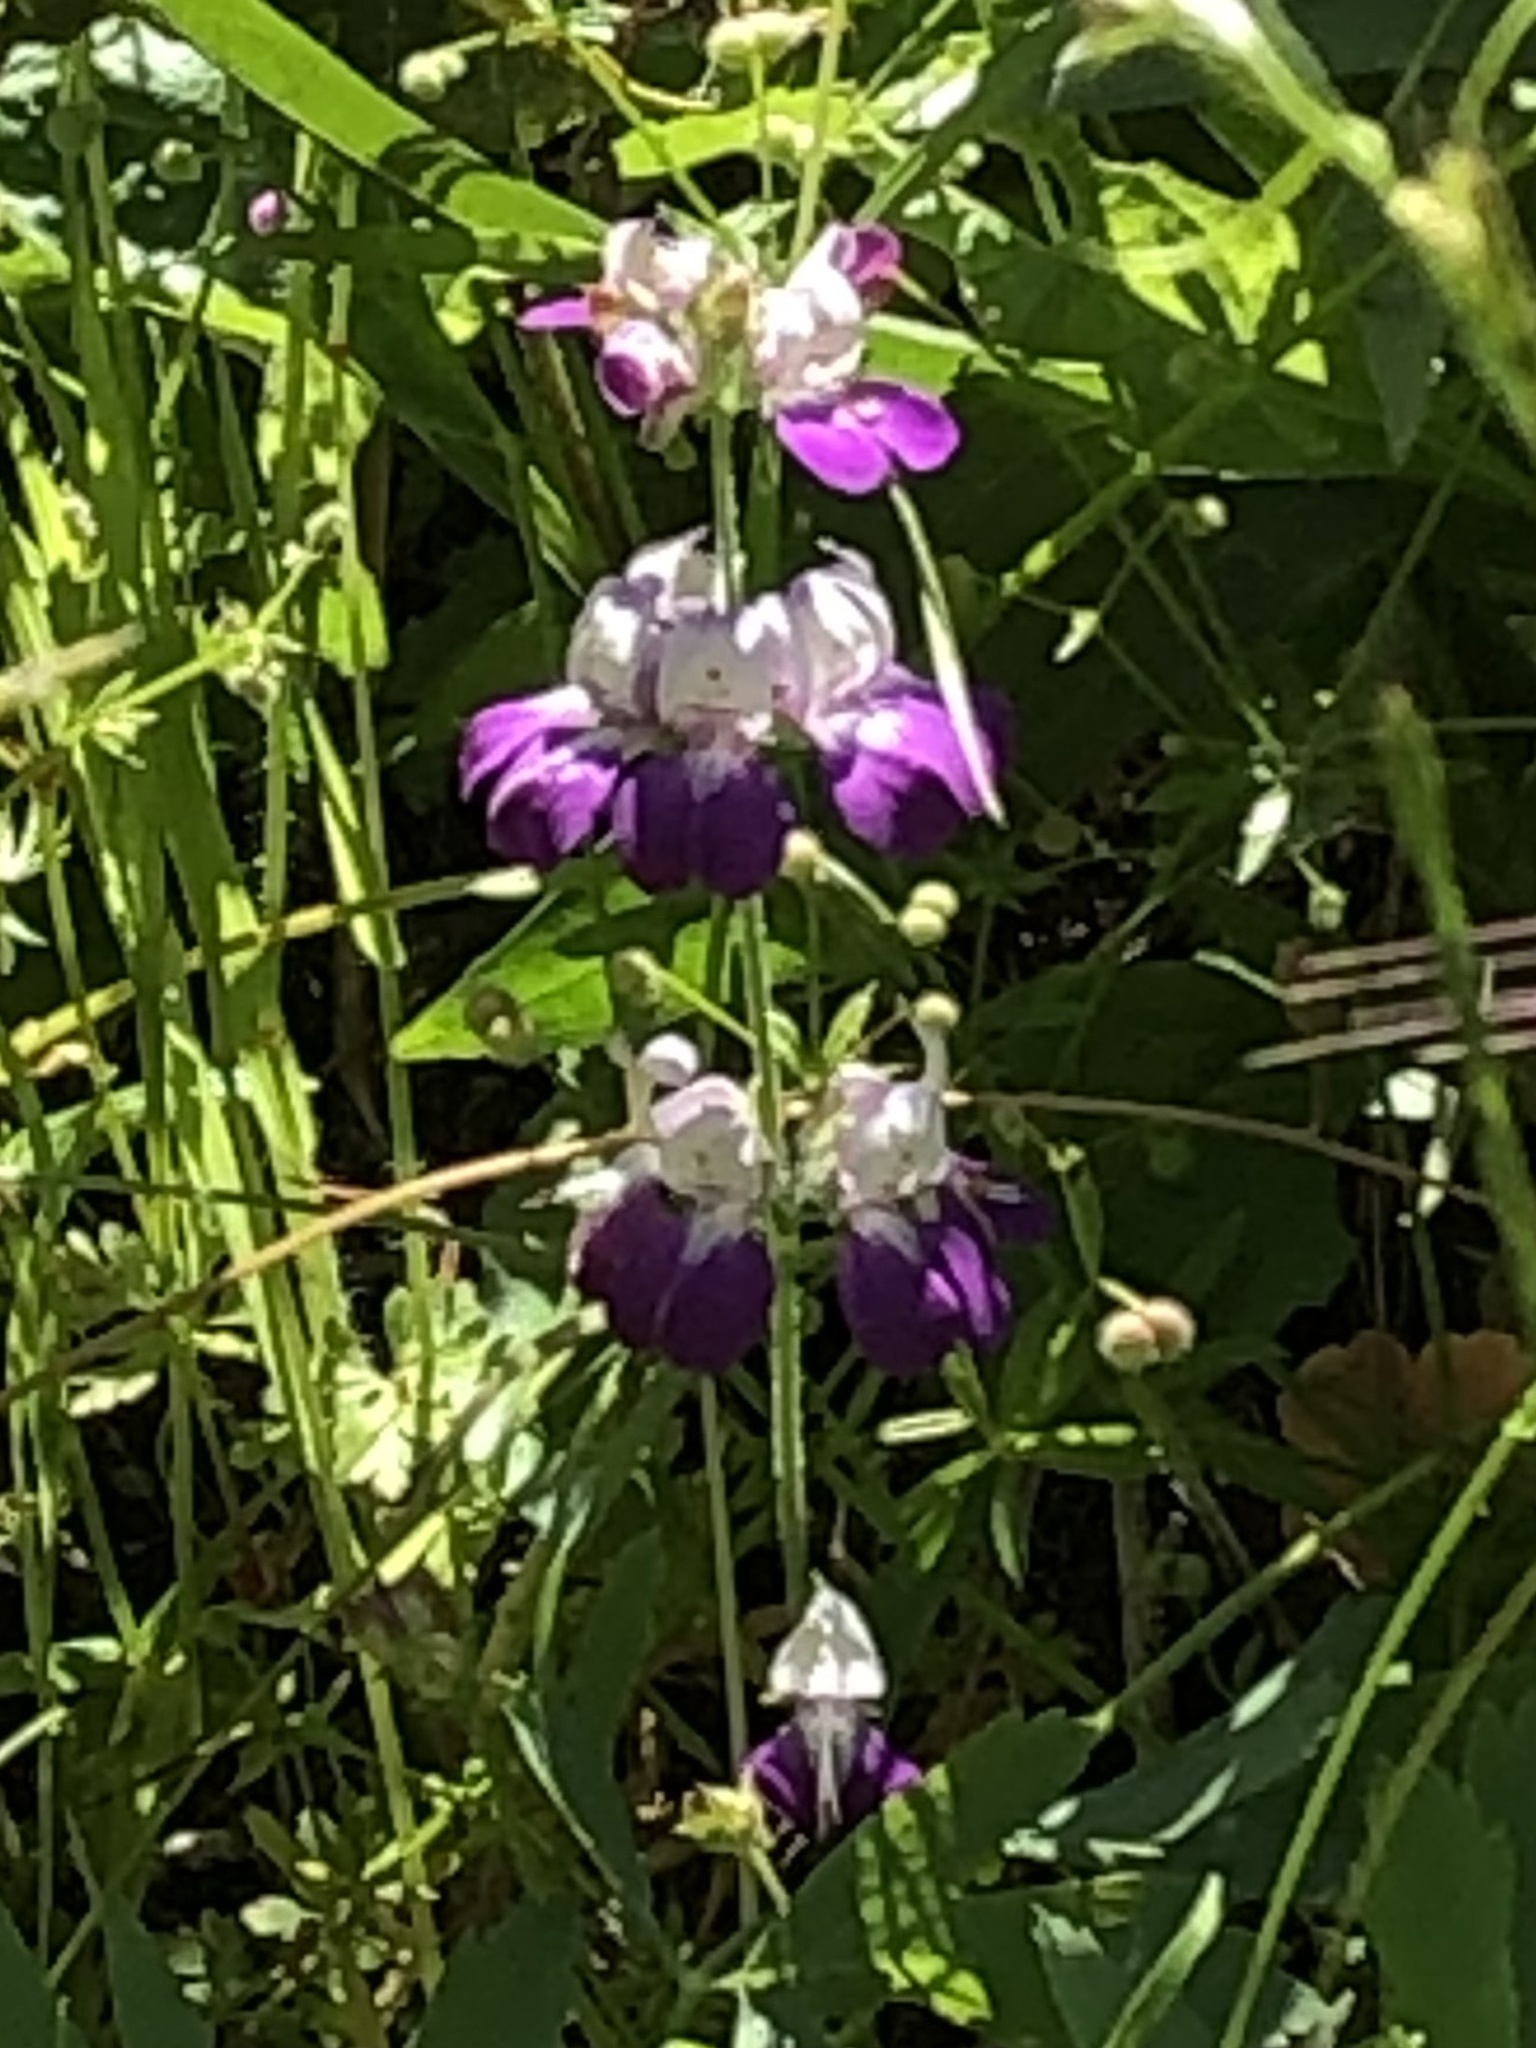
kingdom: Plantae
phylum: Tracheophyta
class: Magnoliopsida
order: Lamiales
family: Plantaginaceae
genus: Collinsia
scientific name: Collinsia heterophylla
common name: Chinese-houses
